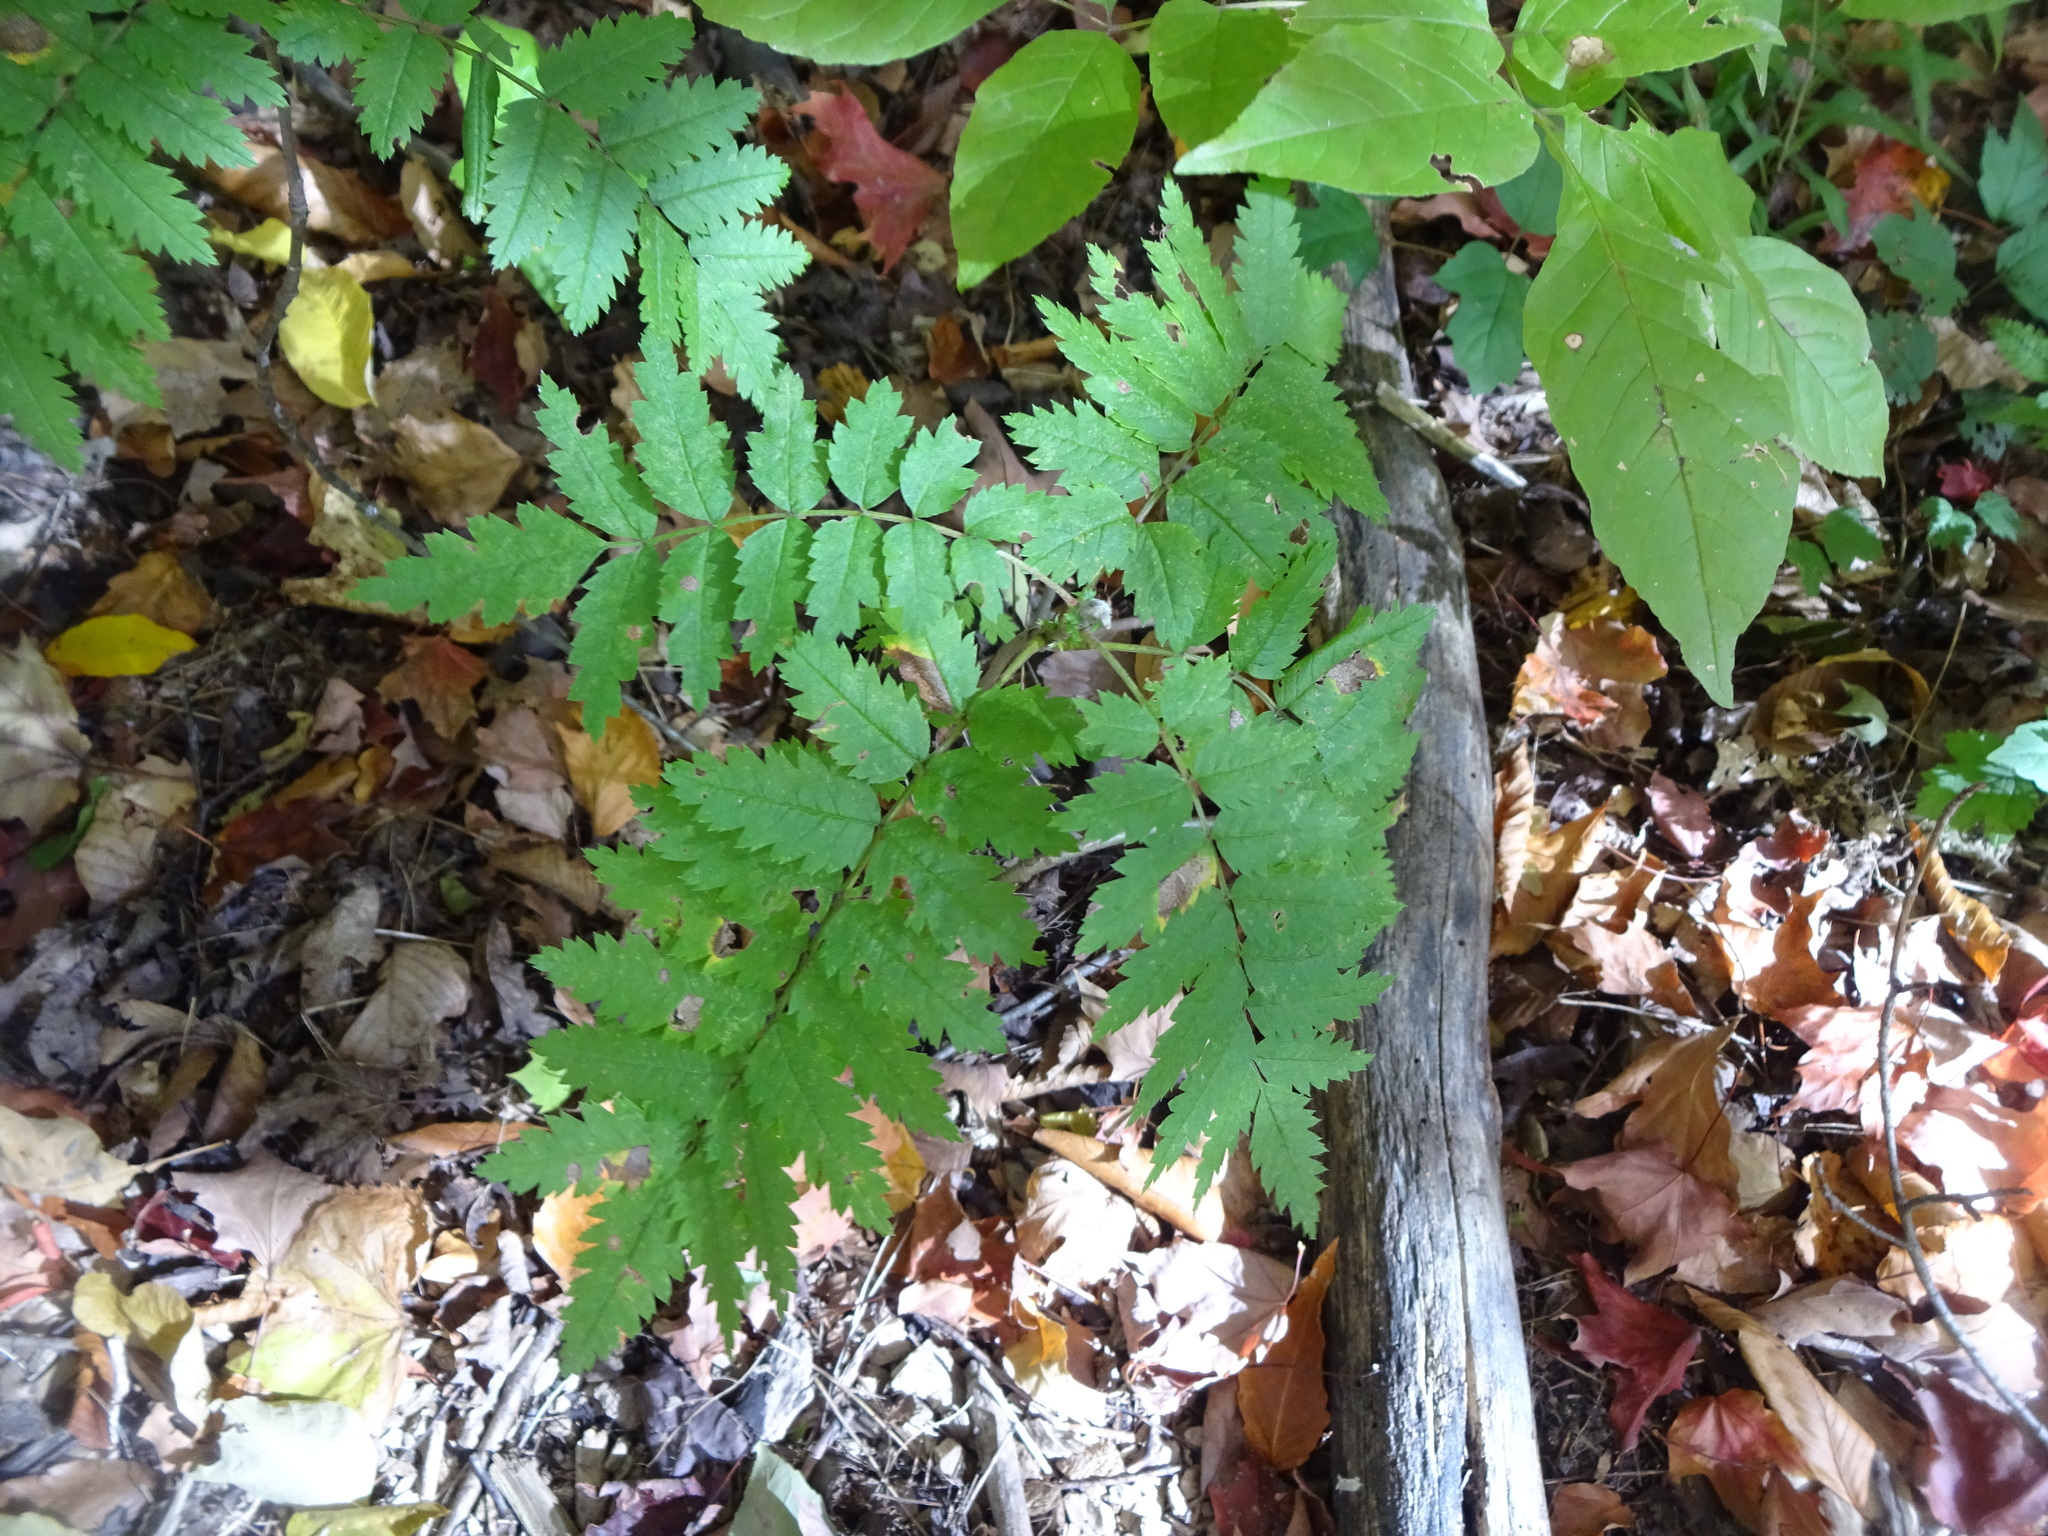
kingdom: Plantae
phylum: Tracheophyta
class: Magnoliopsida
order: Rosales
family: Rosaceae
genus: Sorbus
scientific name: Sorbus aucuparia
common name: Rowan
